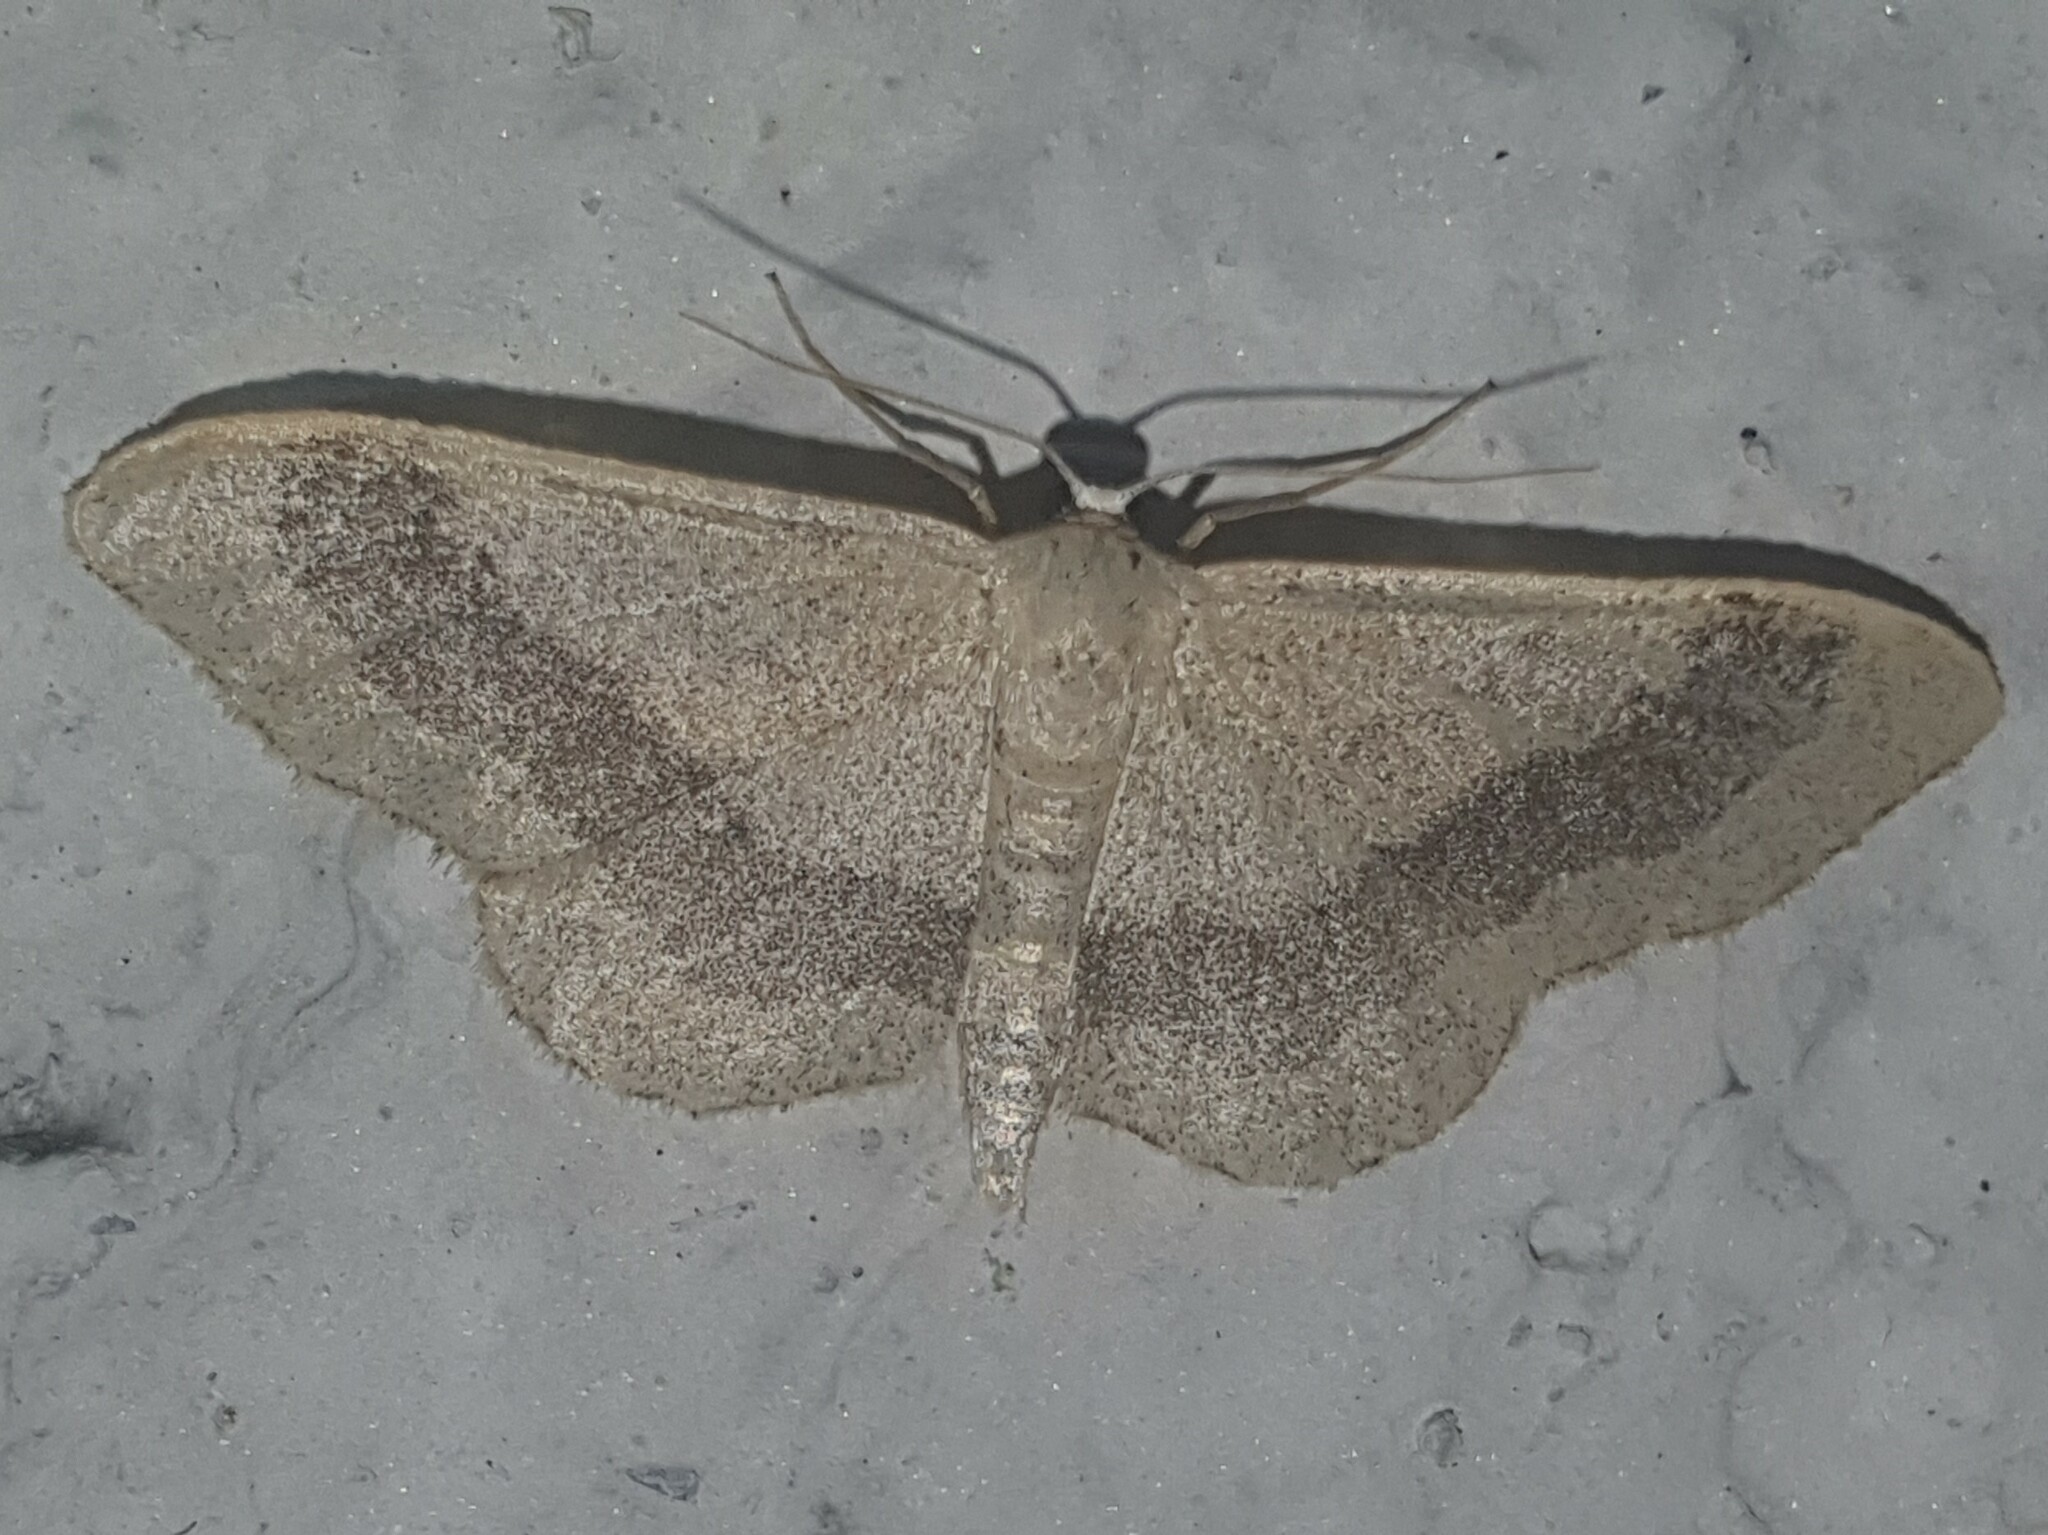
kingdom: Animalia
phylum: Arthropoda
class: Insecta
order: Lepidoptera
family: Geometridae
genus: Idaea
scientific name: Idaea aversata
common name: Riband wave
